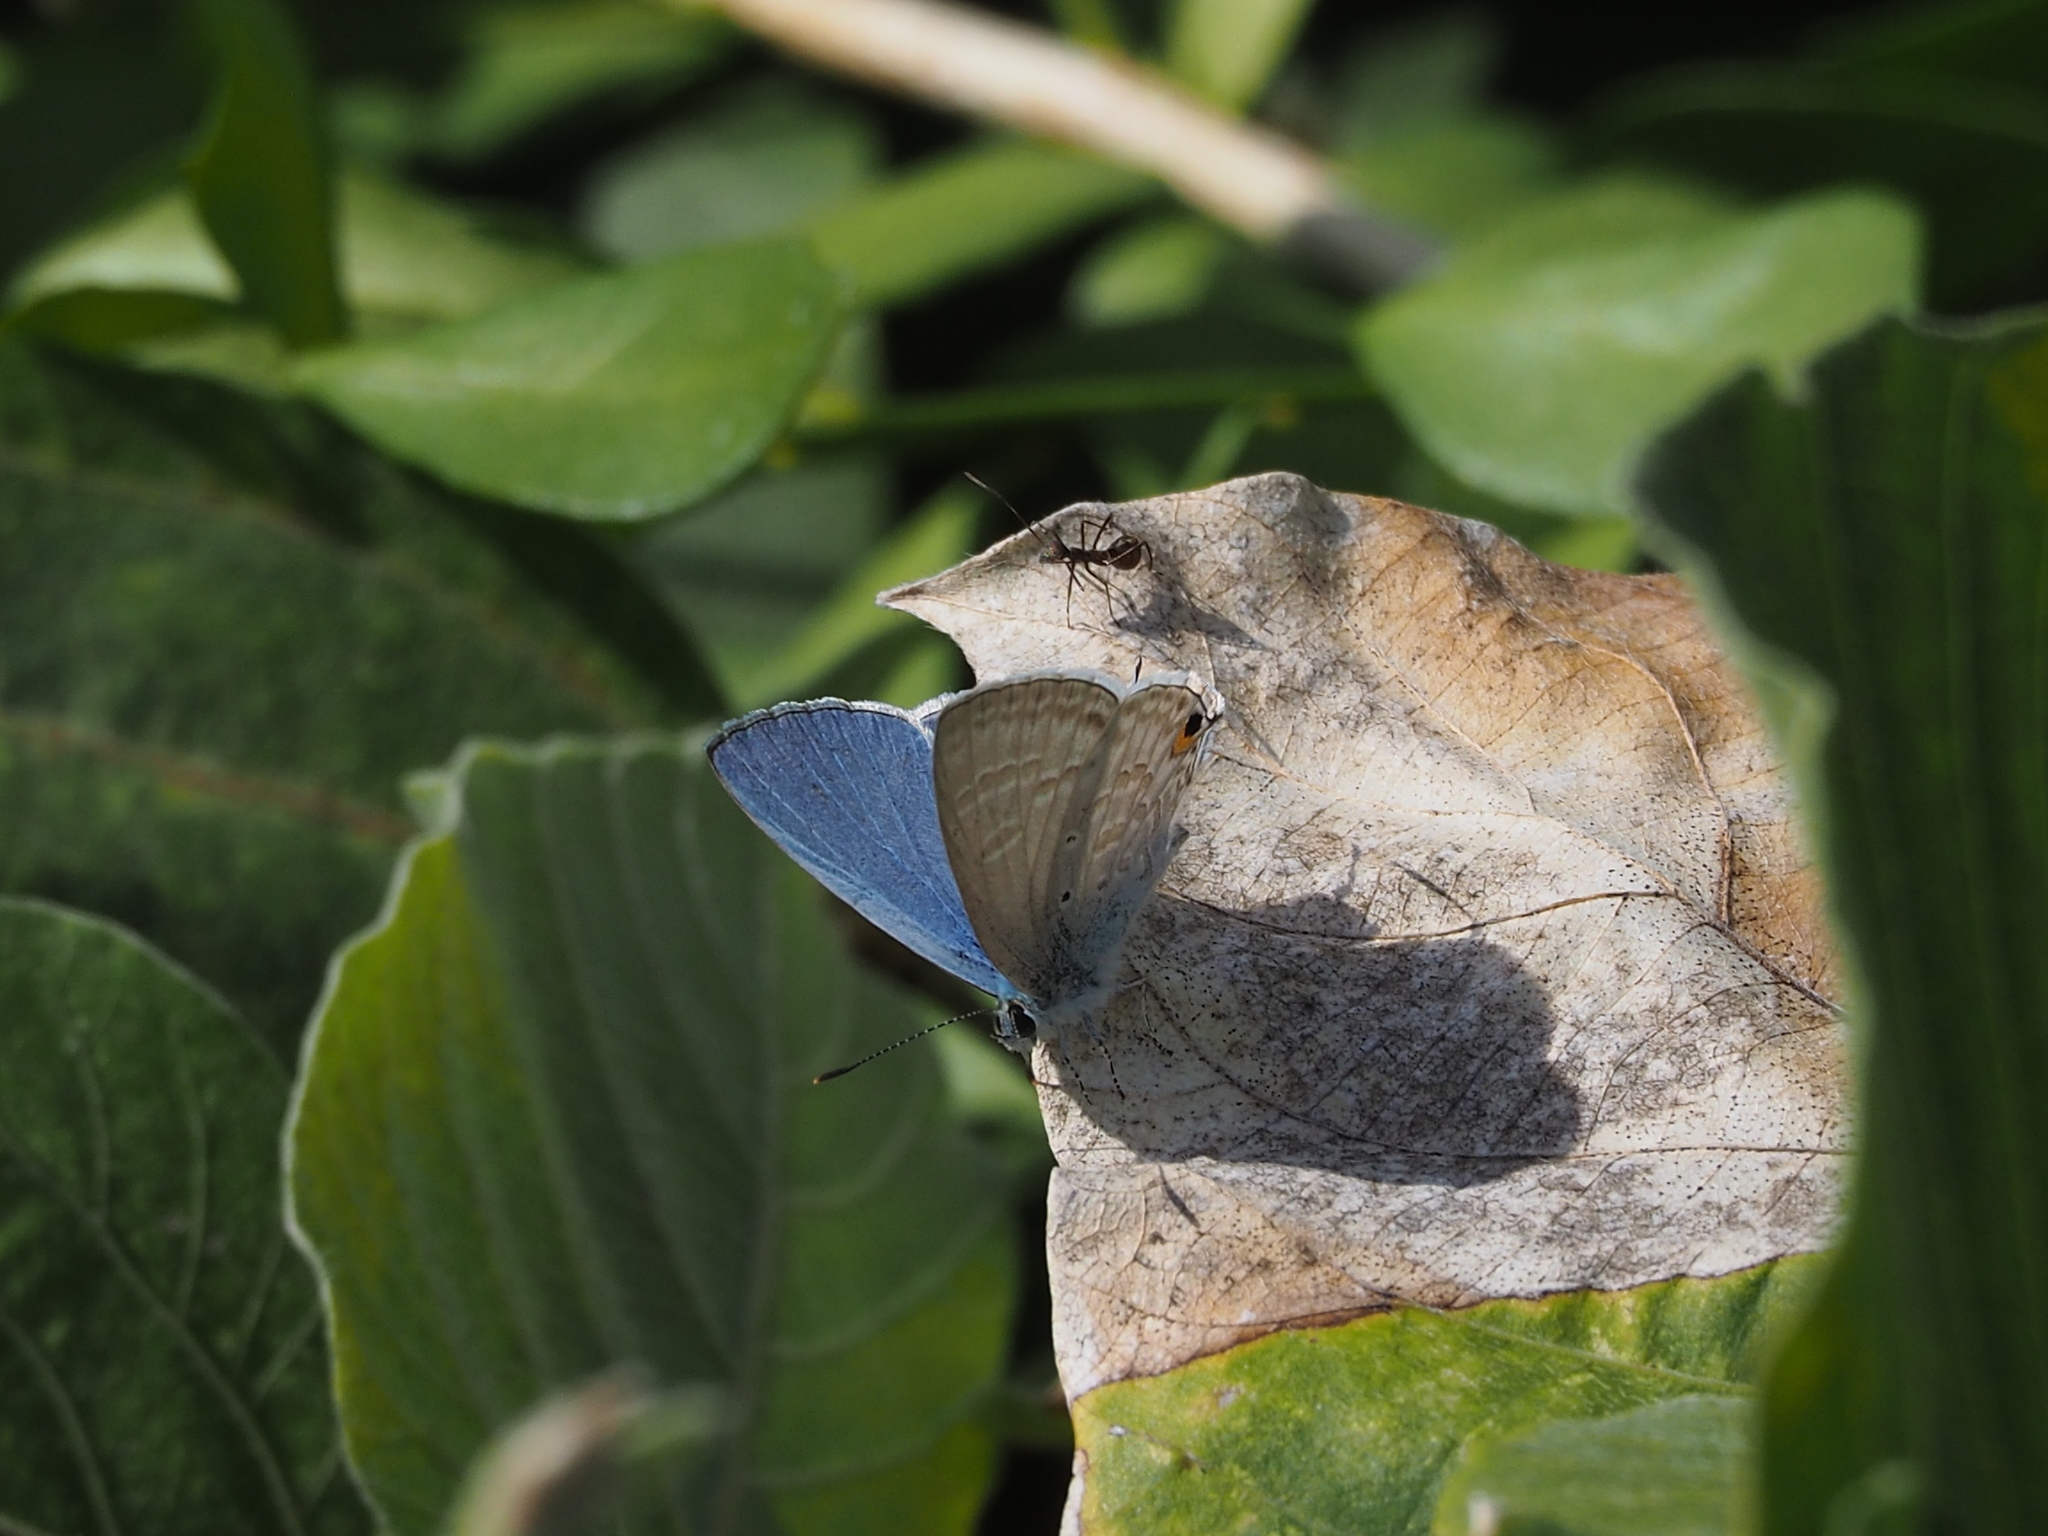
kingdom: Animalia
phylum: Arthropoda
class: Insecta
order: Lepidoptera
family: Lycaenidae
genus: Catochrysops
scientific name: Catochrysops panormus
